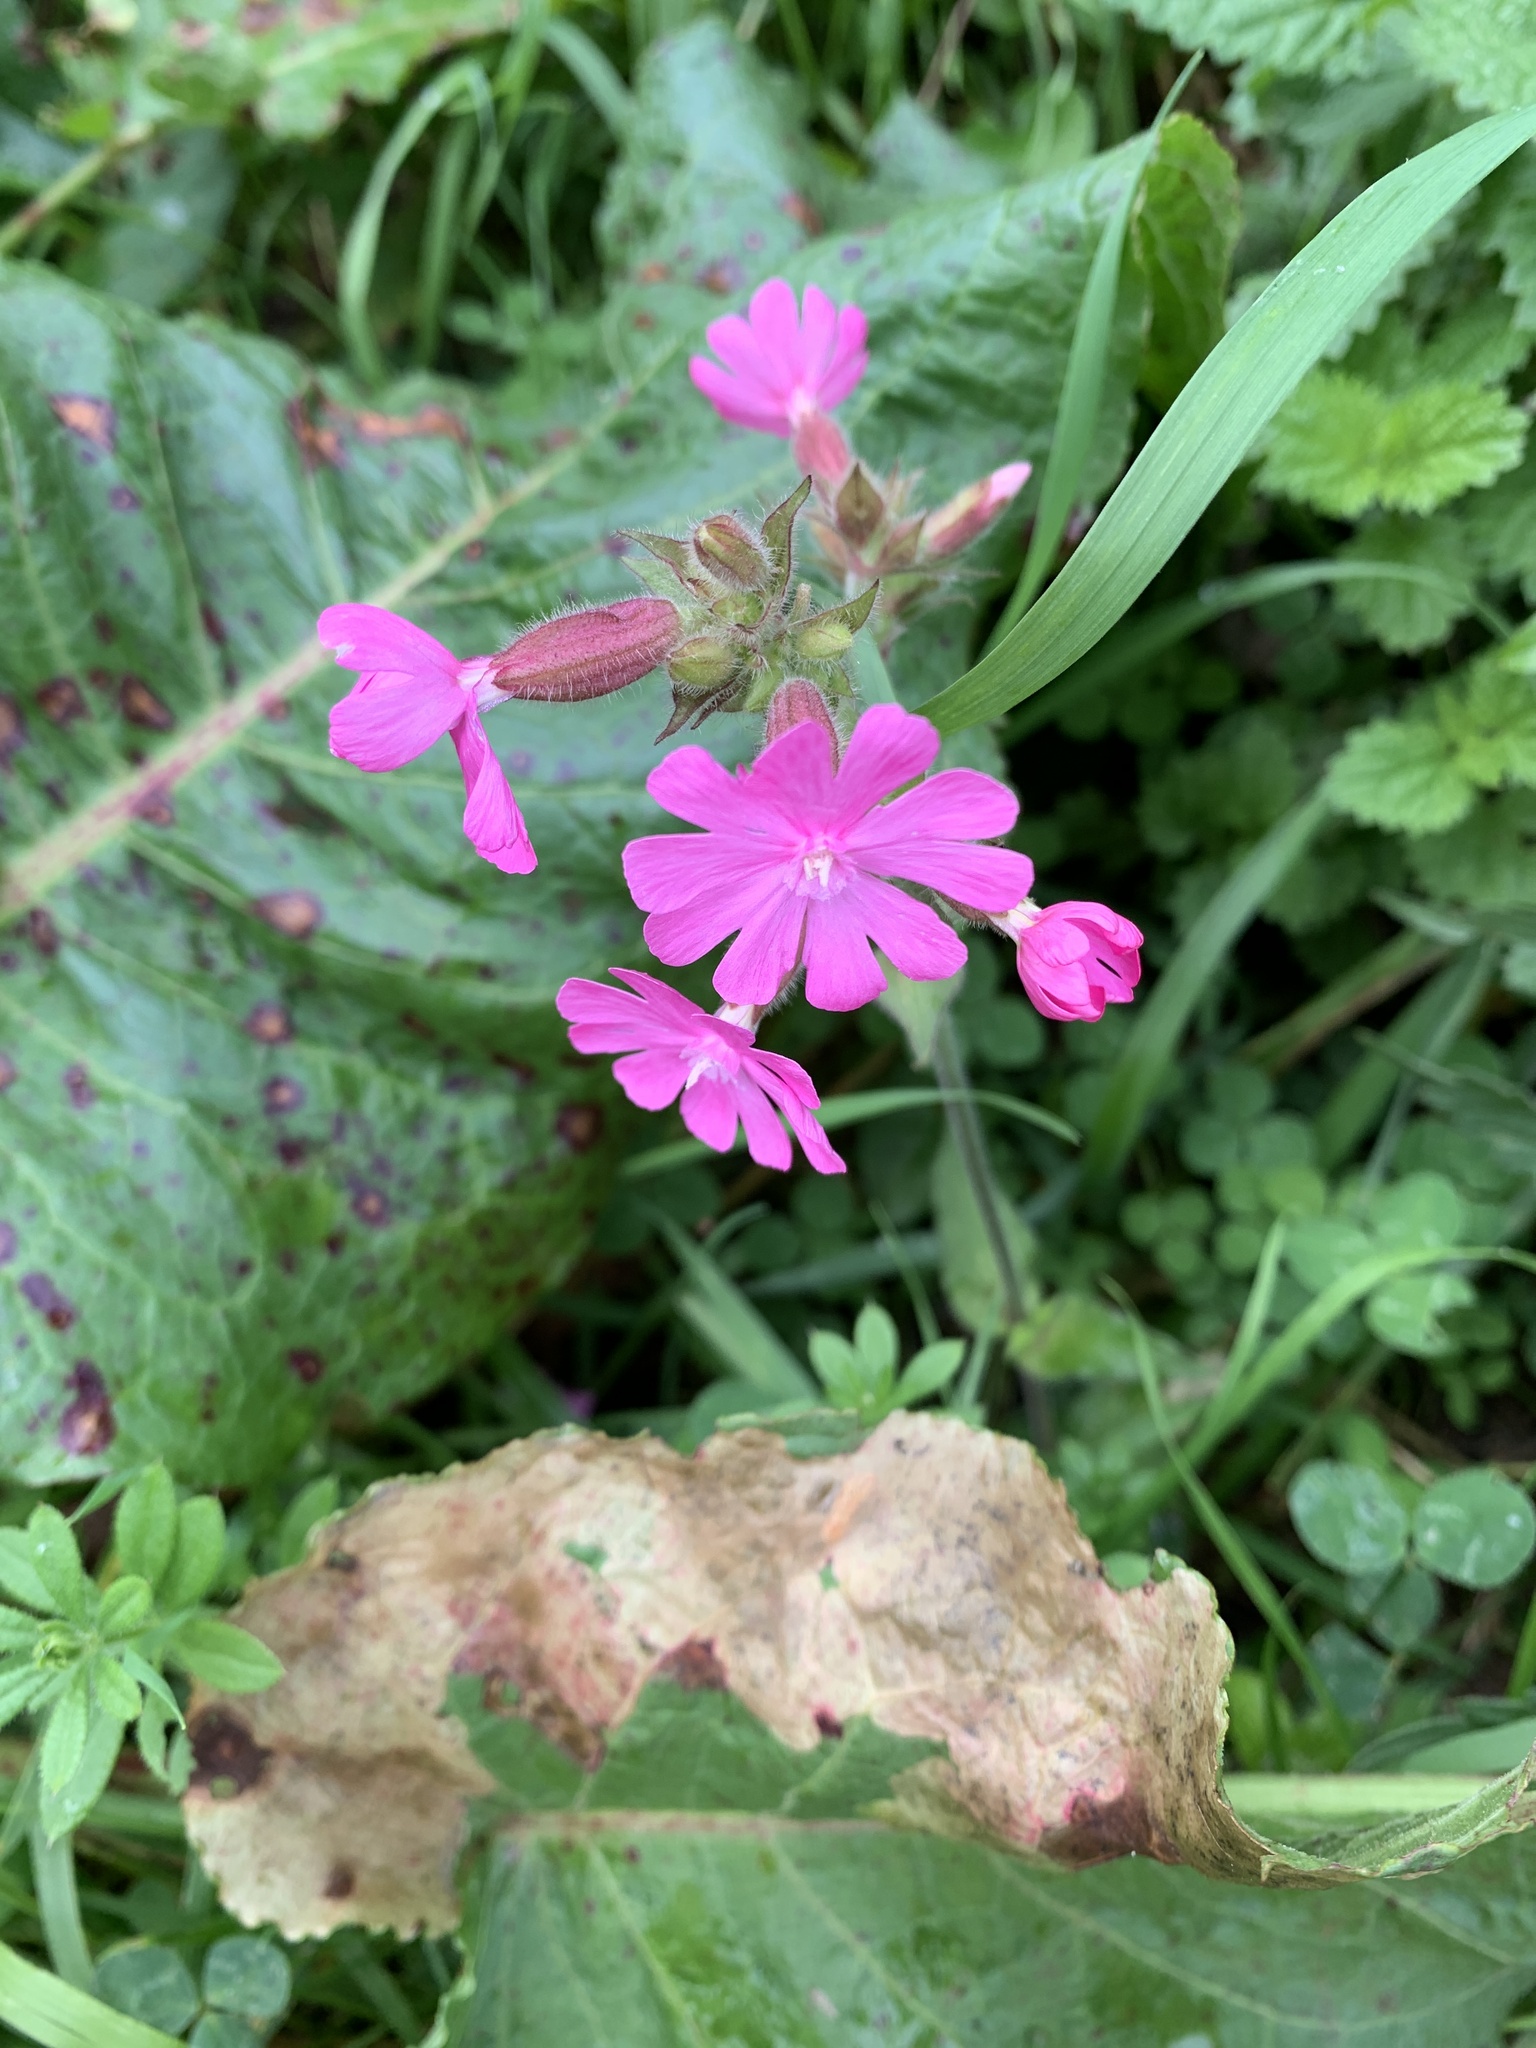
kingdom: Plantae
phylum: Tracheophyta
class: Magnoliopsida
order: Caryophyllales
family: Caryophyllaceae
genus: Silene
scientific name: Silene dioica
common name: Red campion
